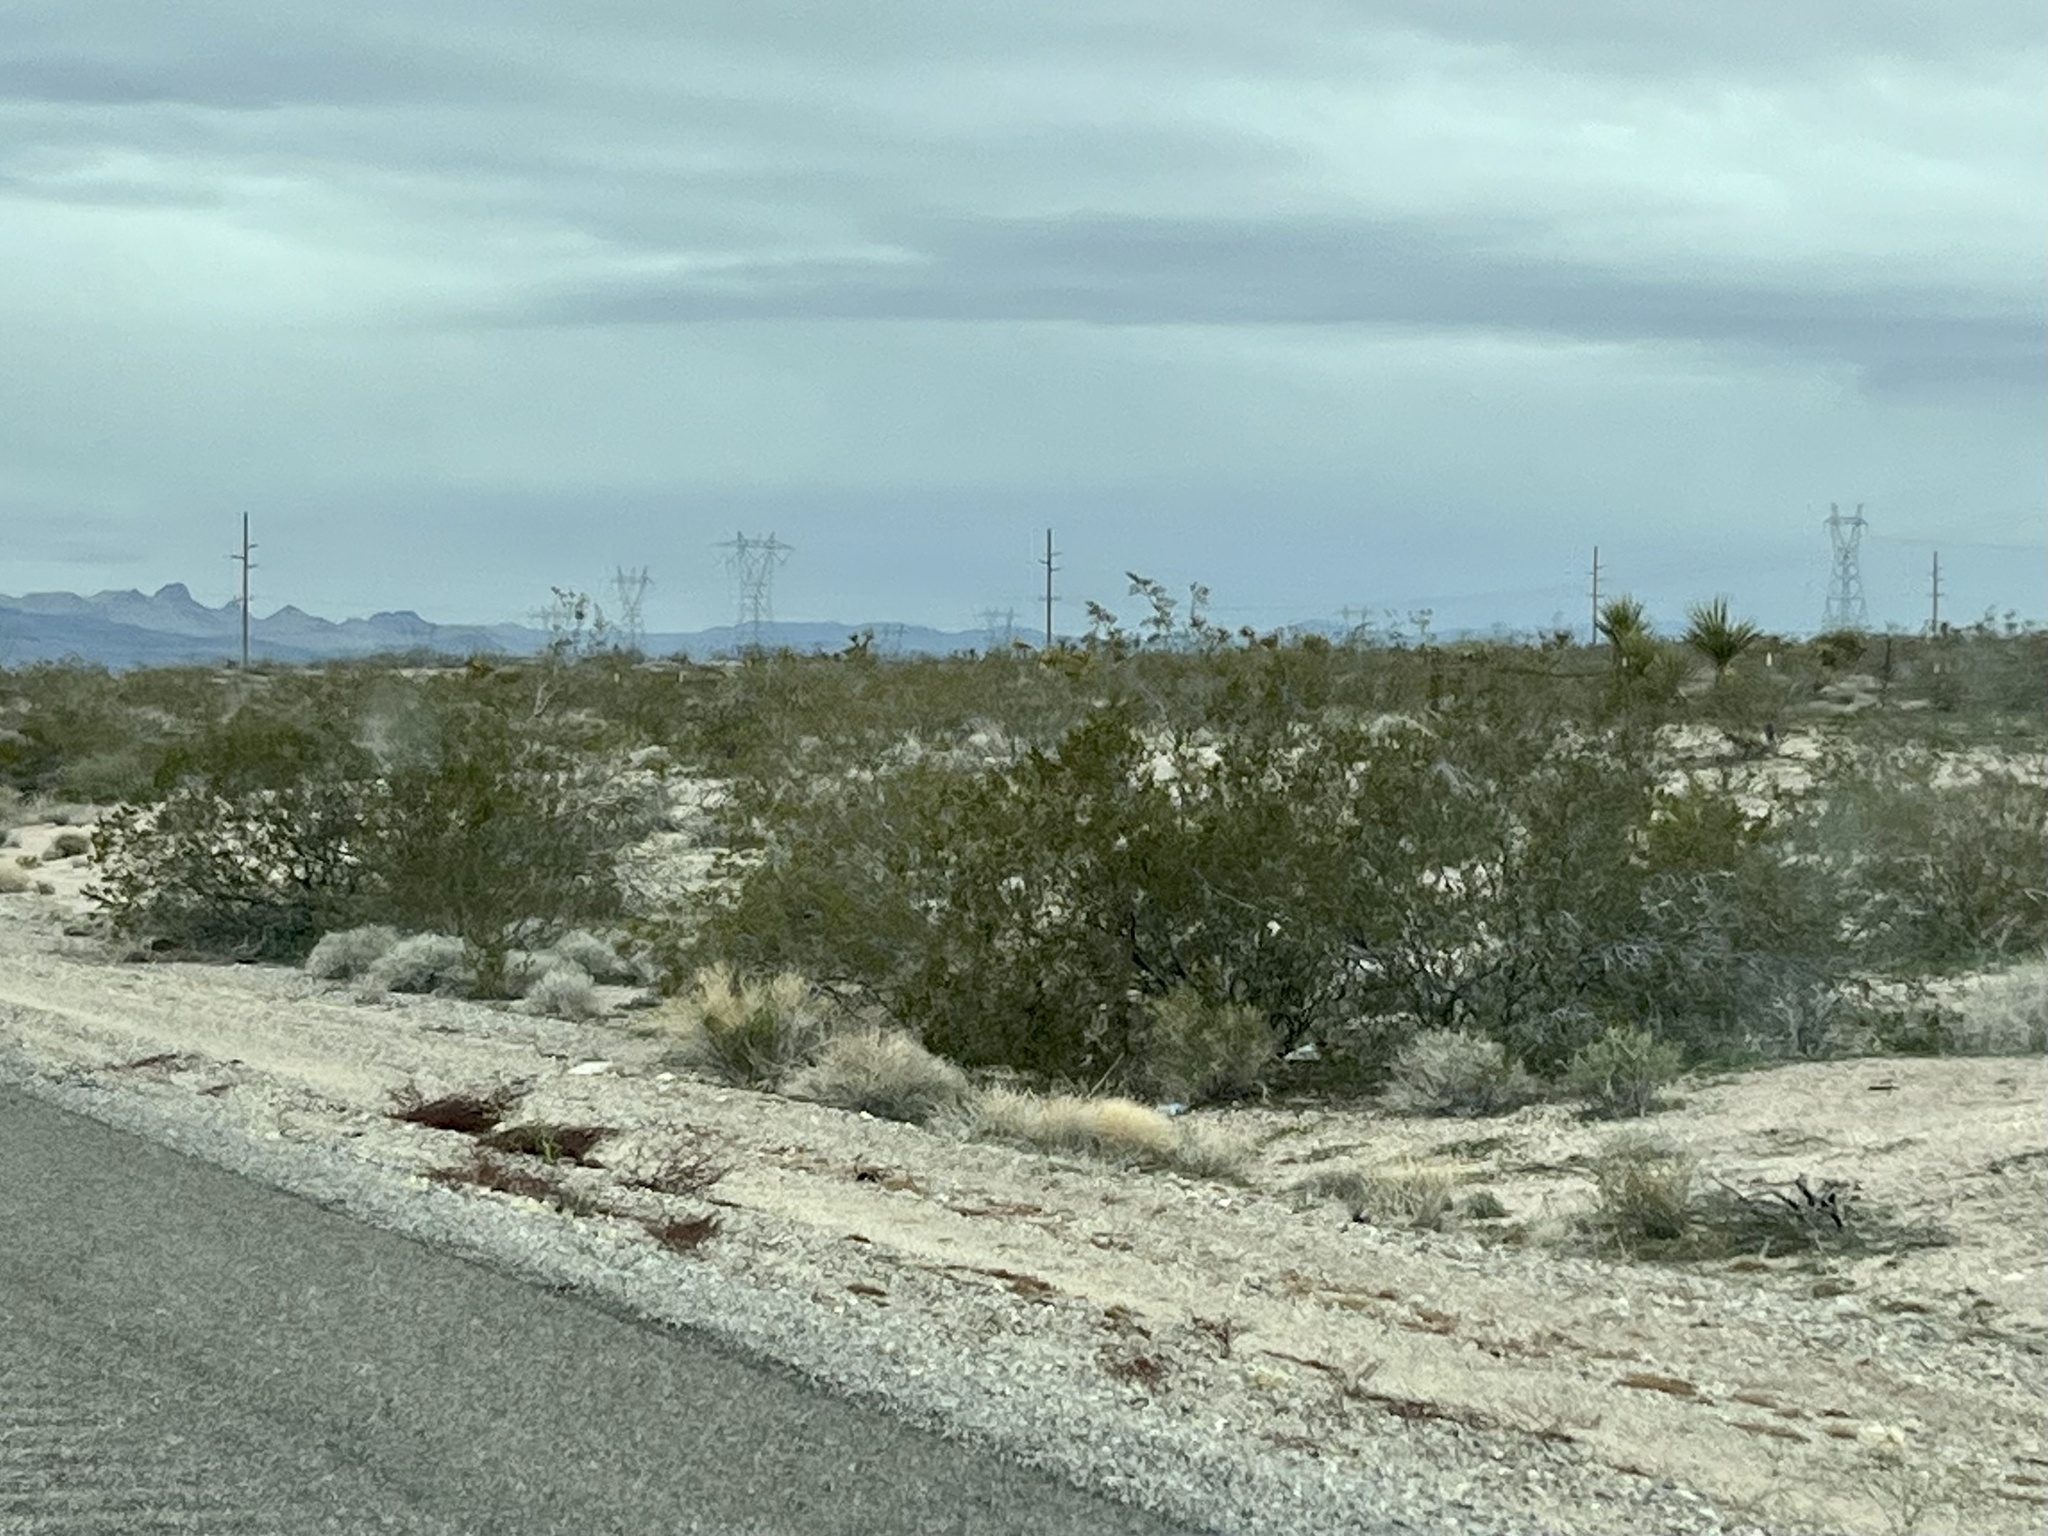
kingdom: Plantae
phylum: Tracheophyta
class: Magnoliopsida
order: Zygophyllales
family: Zygophyllaceae
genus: Larrea
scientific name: Larrea tridentata
